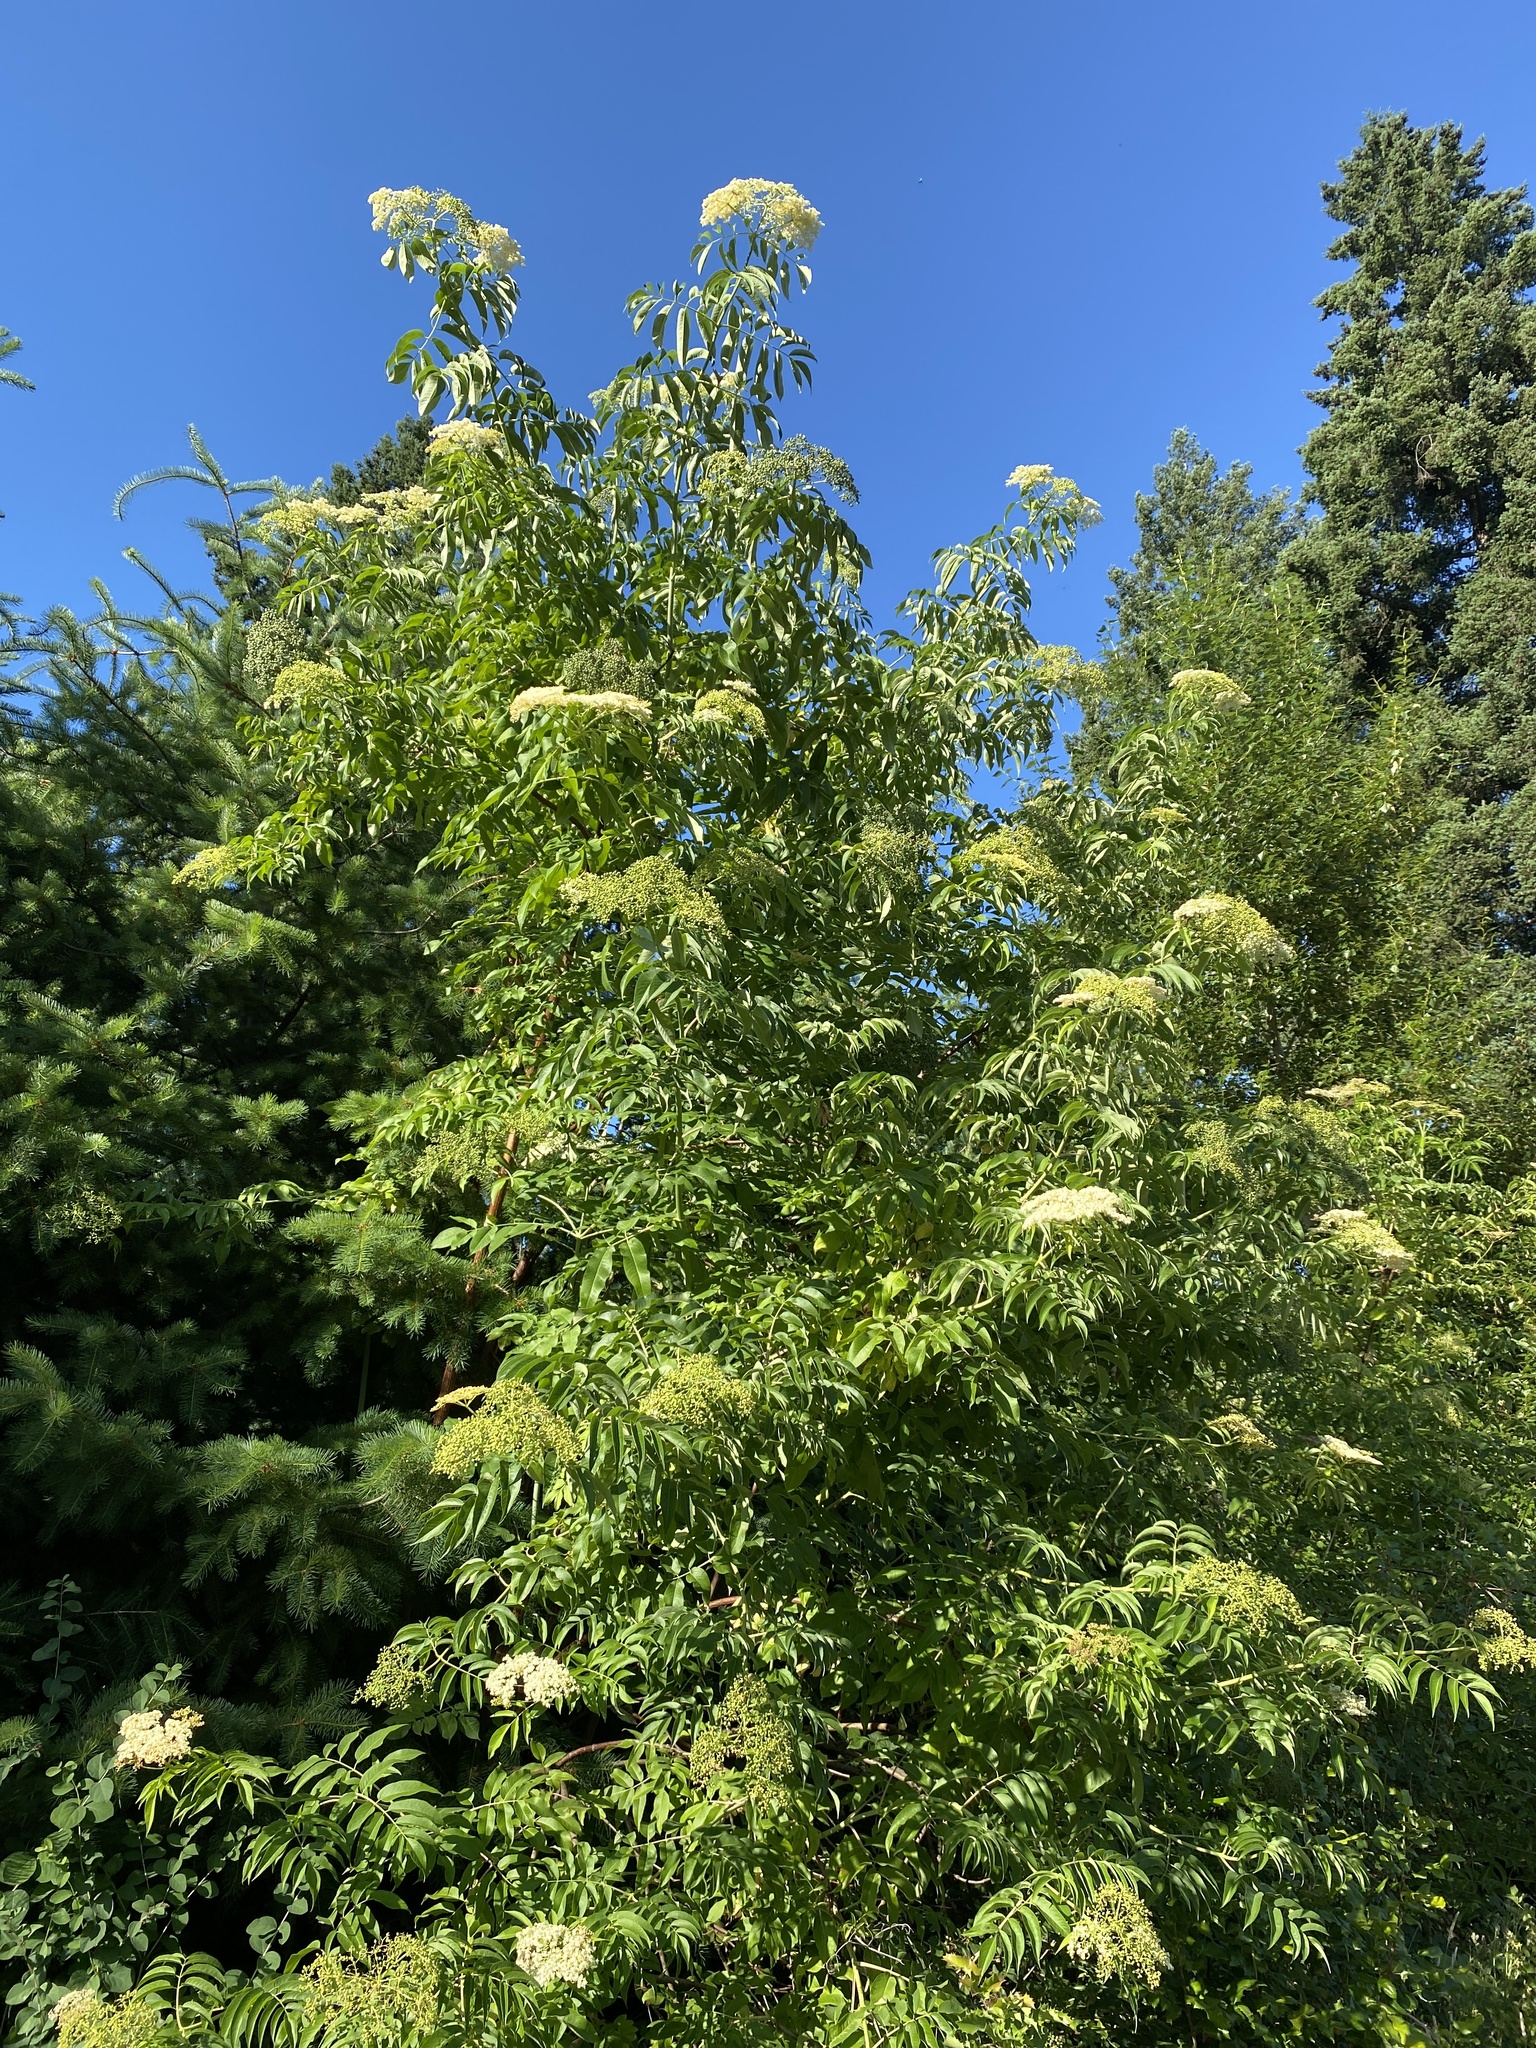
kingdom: Plantae
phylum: Tracheophyta
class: Magnoliopsida
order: Dipsacales
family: Viburnaceae
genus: Sambucus
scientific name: Sambucus cerulea
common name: Blue elder
